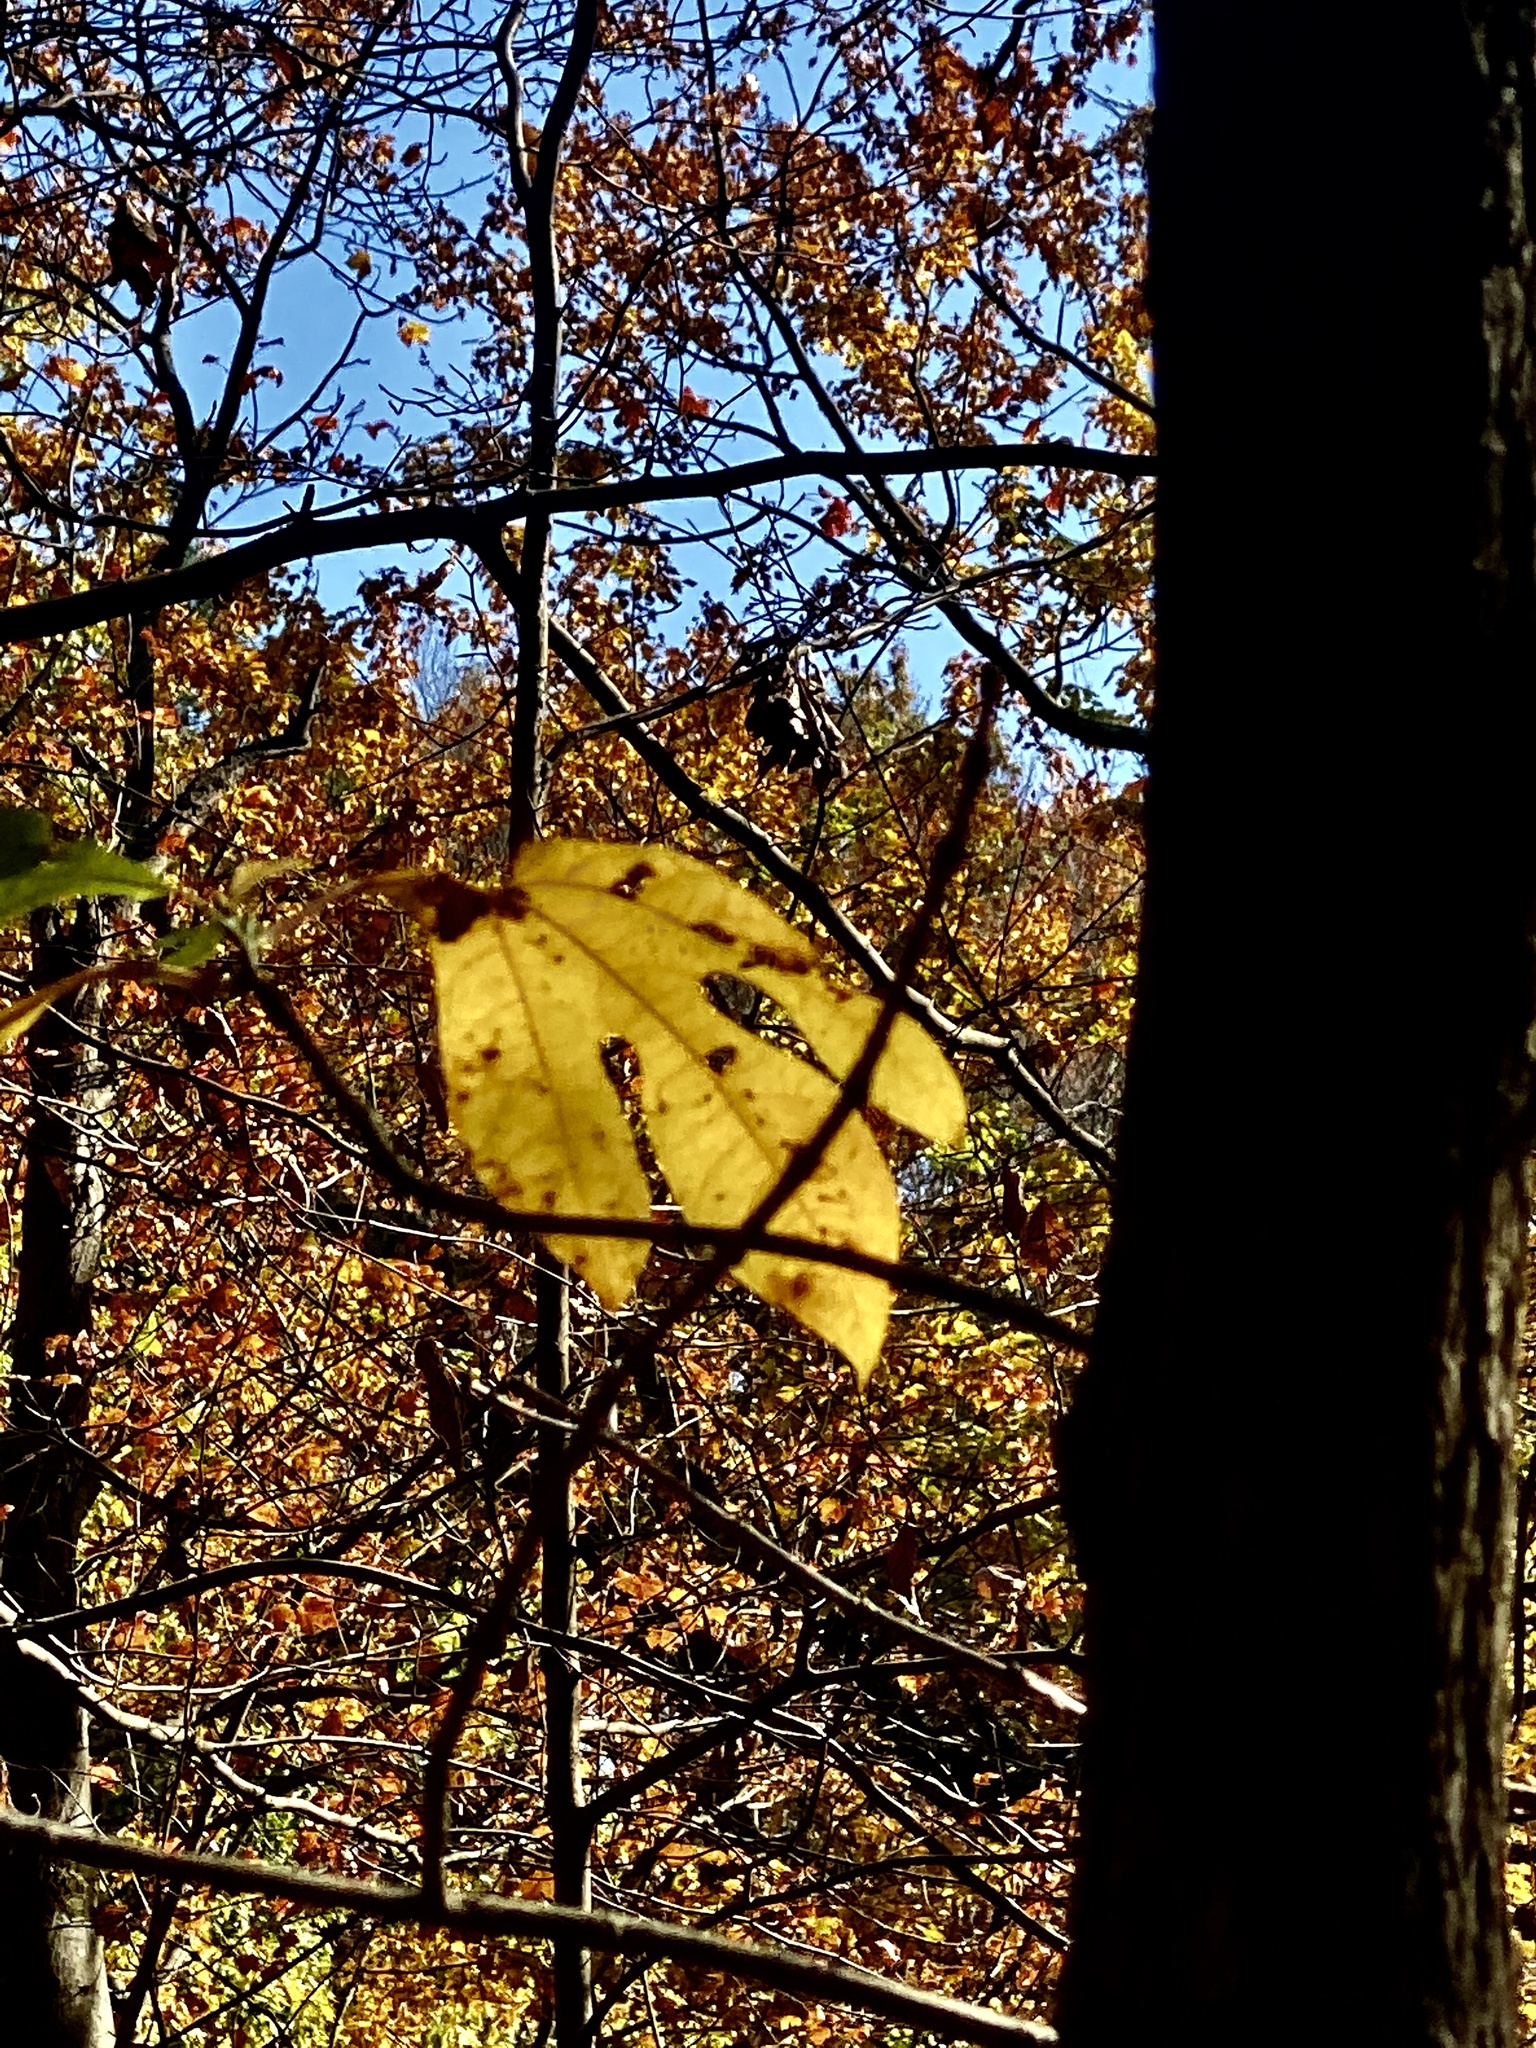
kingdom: Plantae
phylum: Tracheophyta
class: Magnoliopsida
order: Laurales
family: Lauraceae
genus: Sassafras
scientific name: Sassafras albidum
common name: Sassafras
